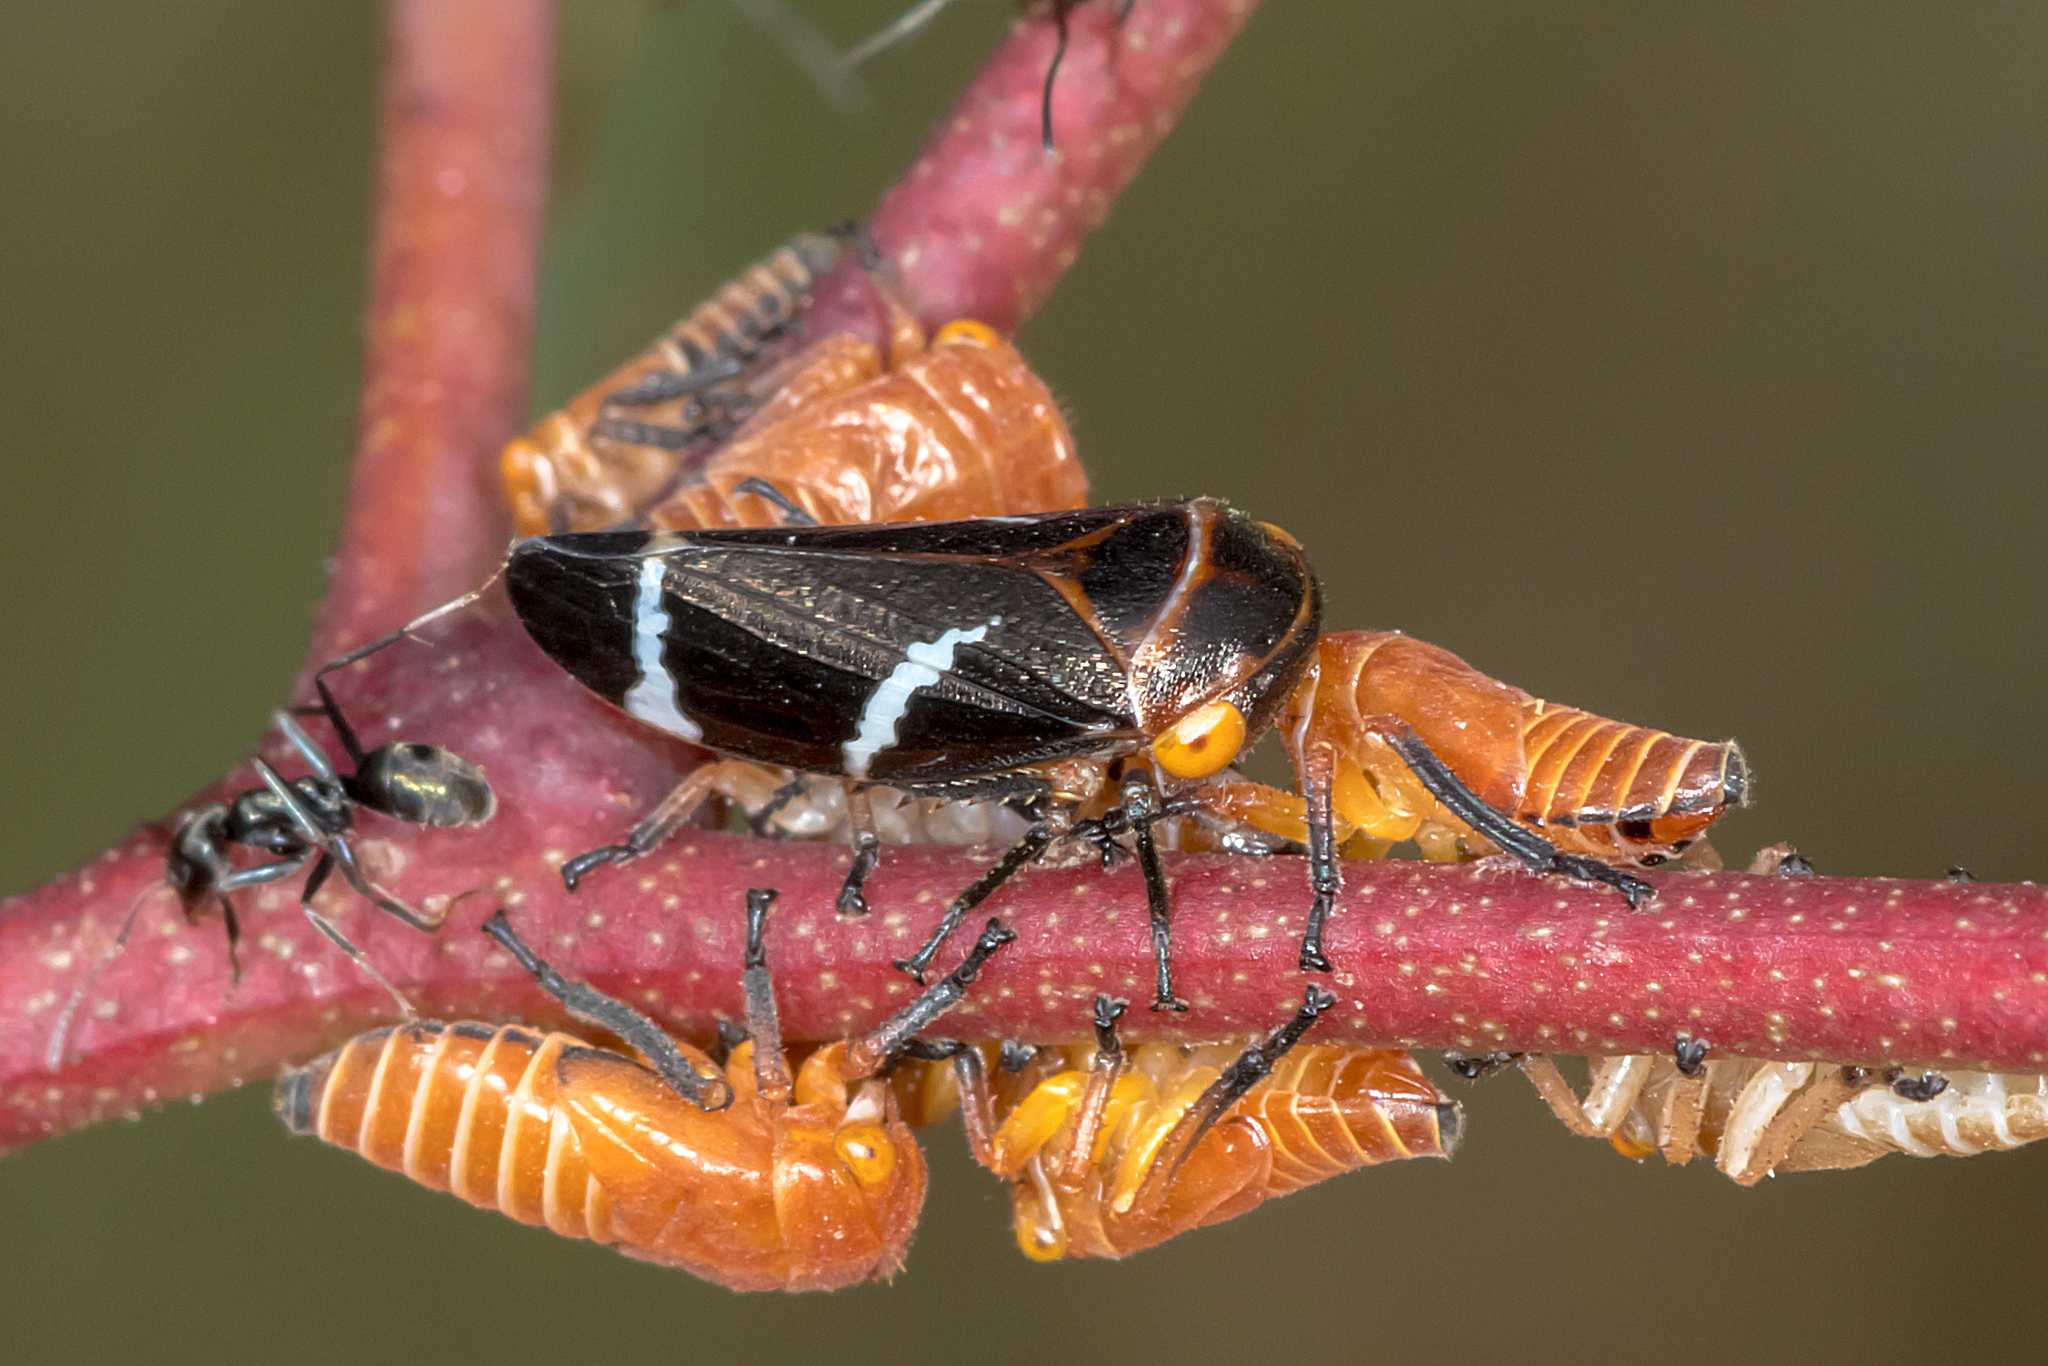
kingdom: Animalia
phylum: Arthropoda
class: Insecta
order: Hemiptera
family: Cicadellidae
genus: Eurymeloides
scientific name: Eurymeloides bicincta
